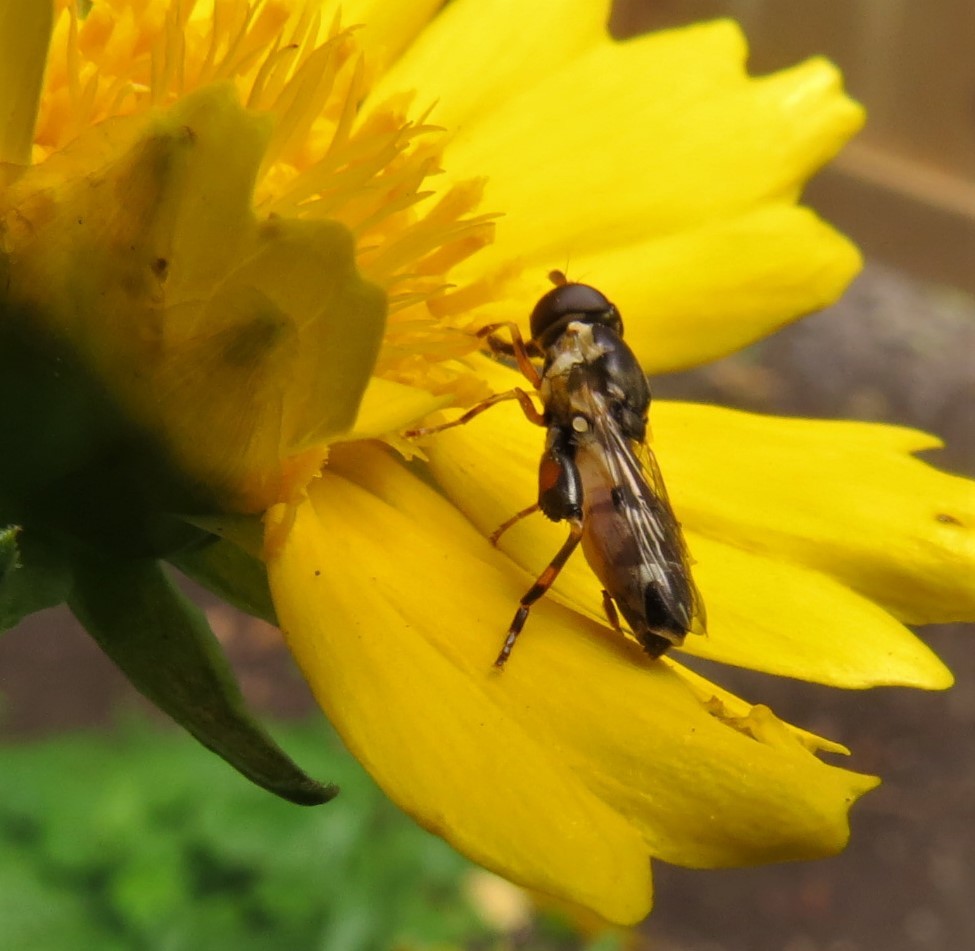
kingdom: Animalia
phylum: Arthropoda
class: Insecta
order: Diptera
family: Syrphidae
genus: Syritta
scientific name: Syritta pipiens
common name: Hover fly
